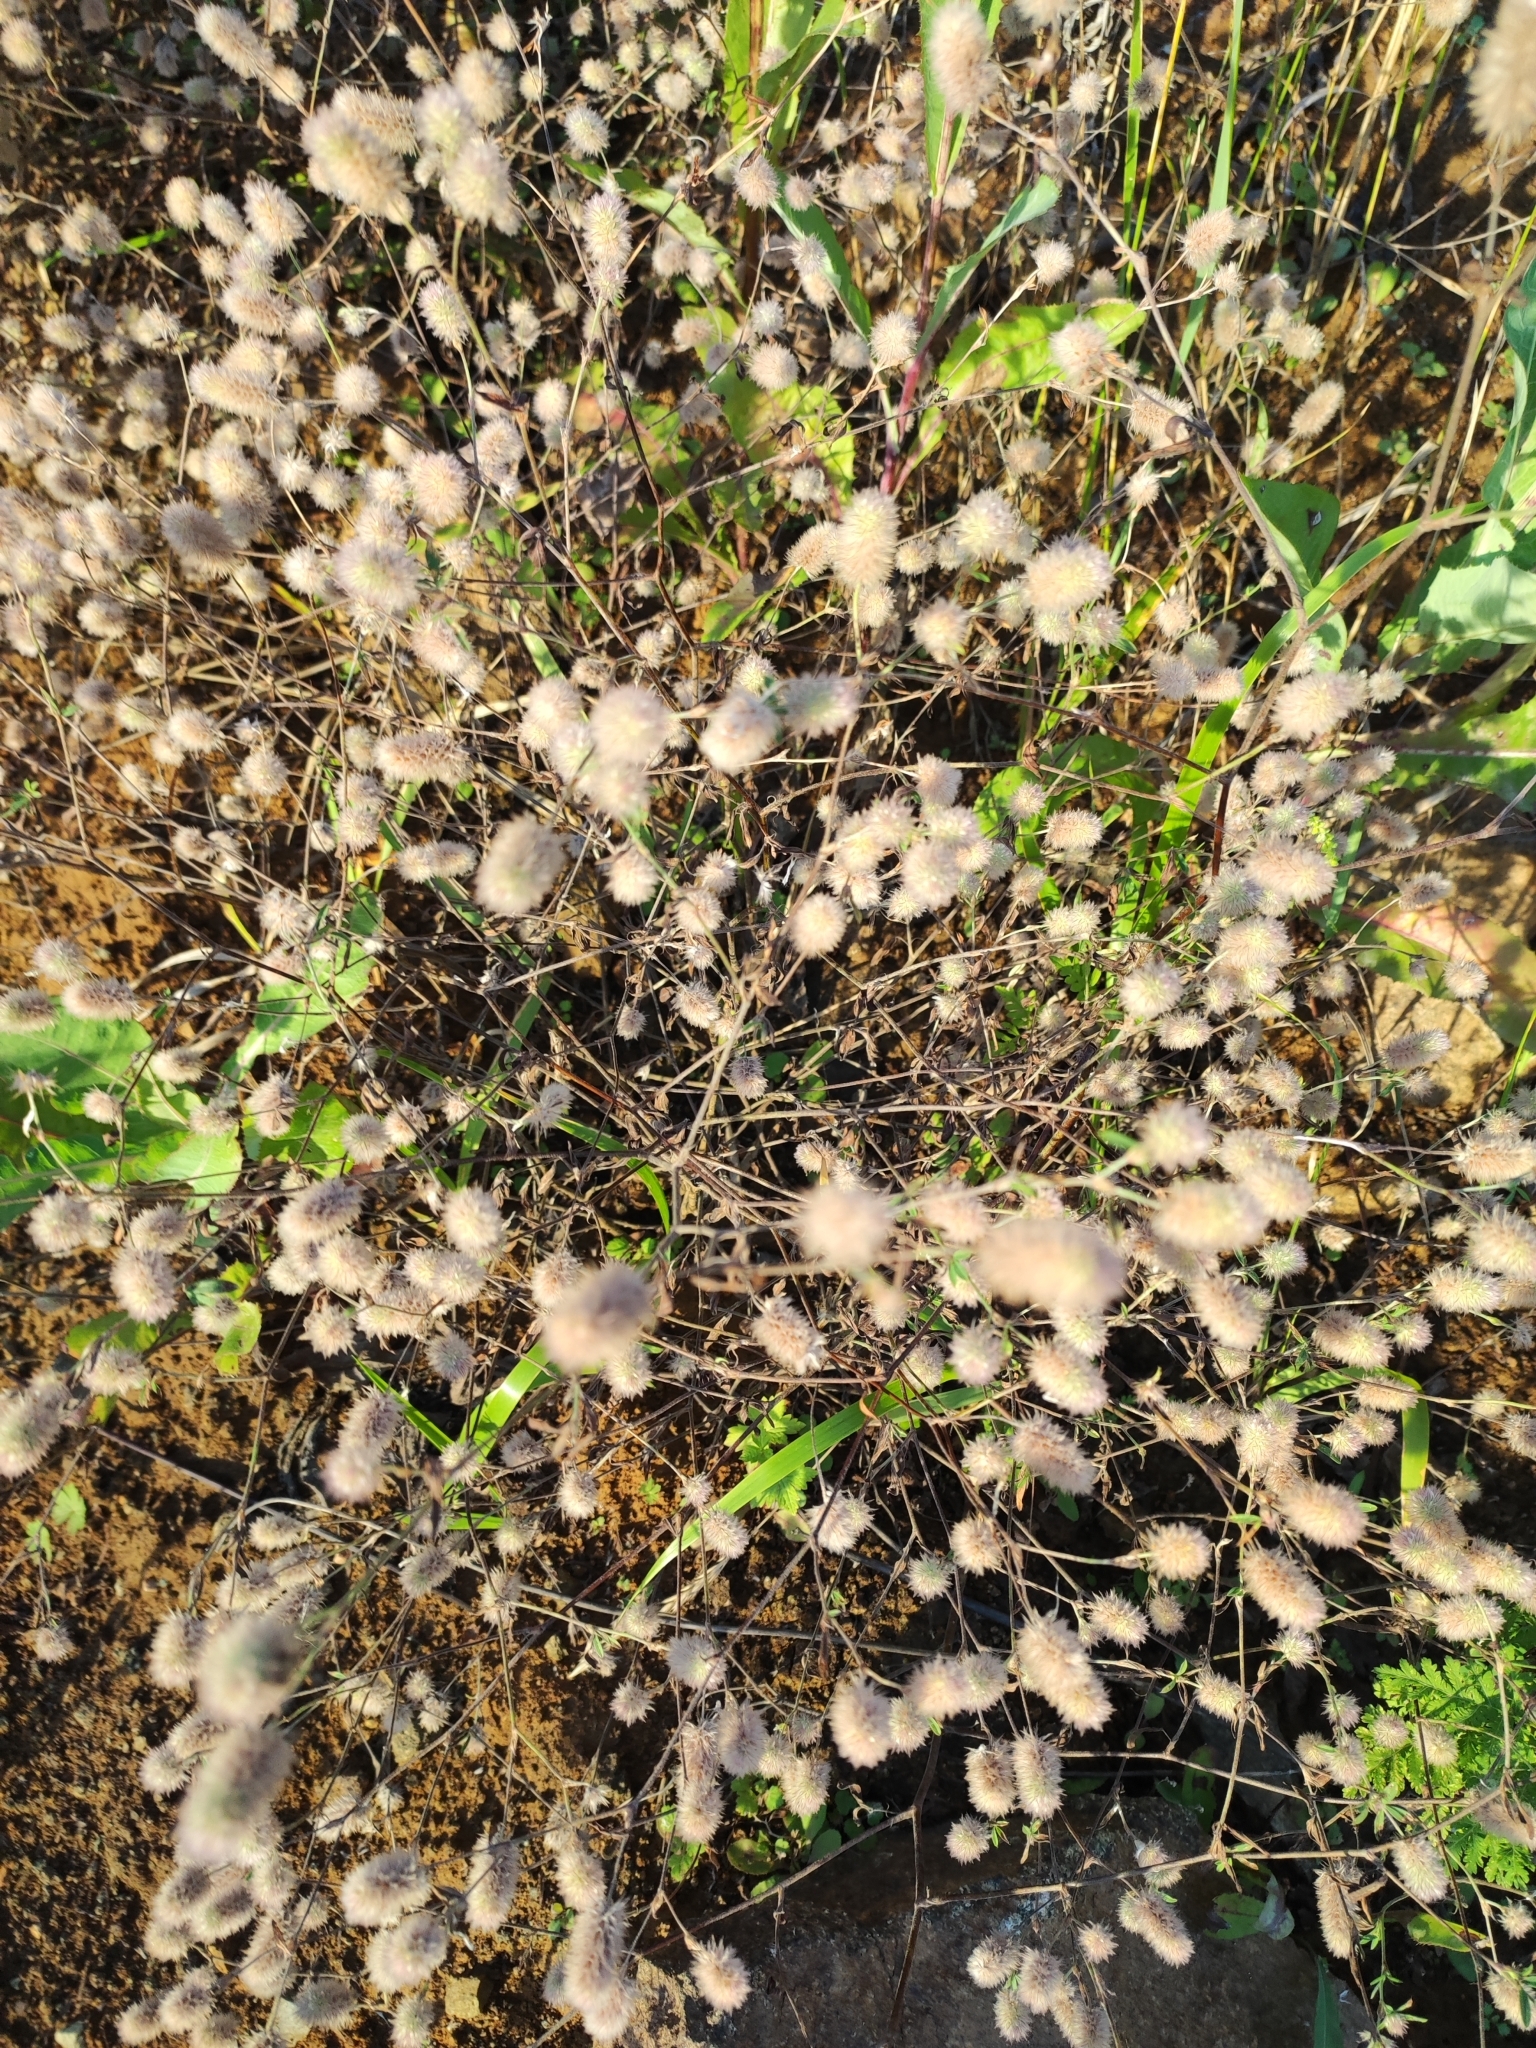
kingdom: Plantae
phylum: Tracheophyta
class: Magnoliopsida
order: Fabales
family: Fabaceae
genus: Trifolium
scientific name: Trifolium arvense
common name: Hare's-foot clover
